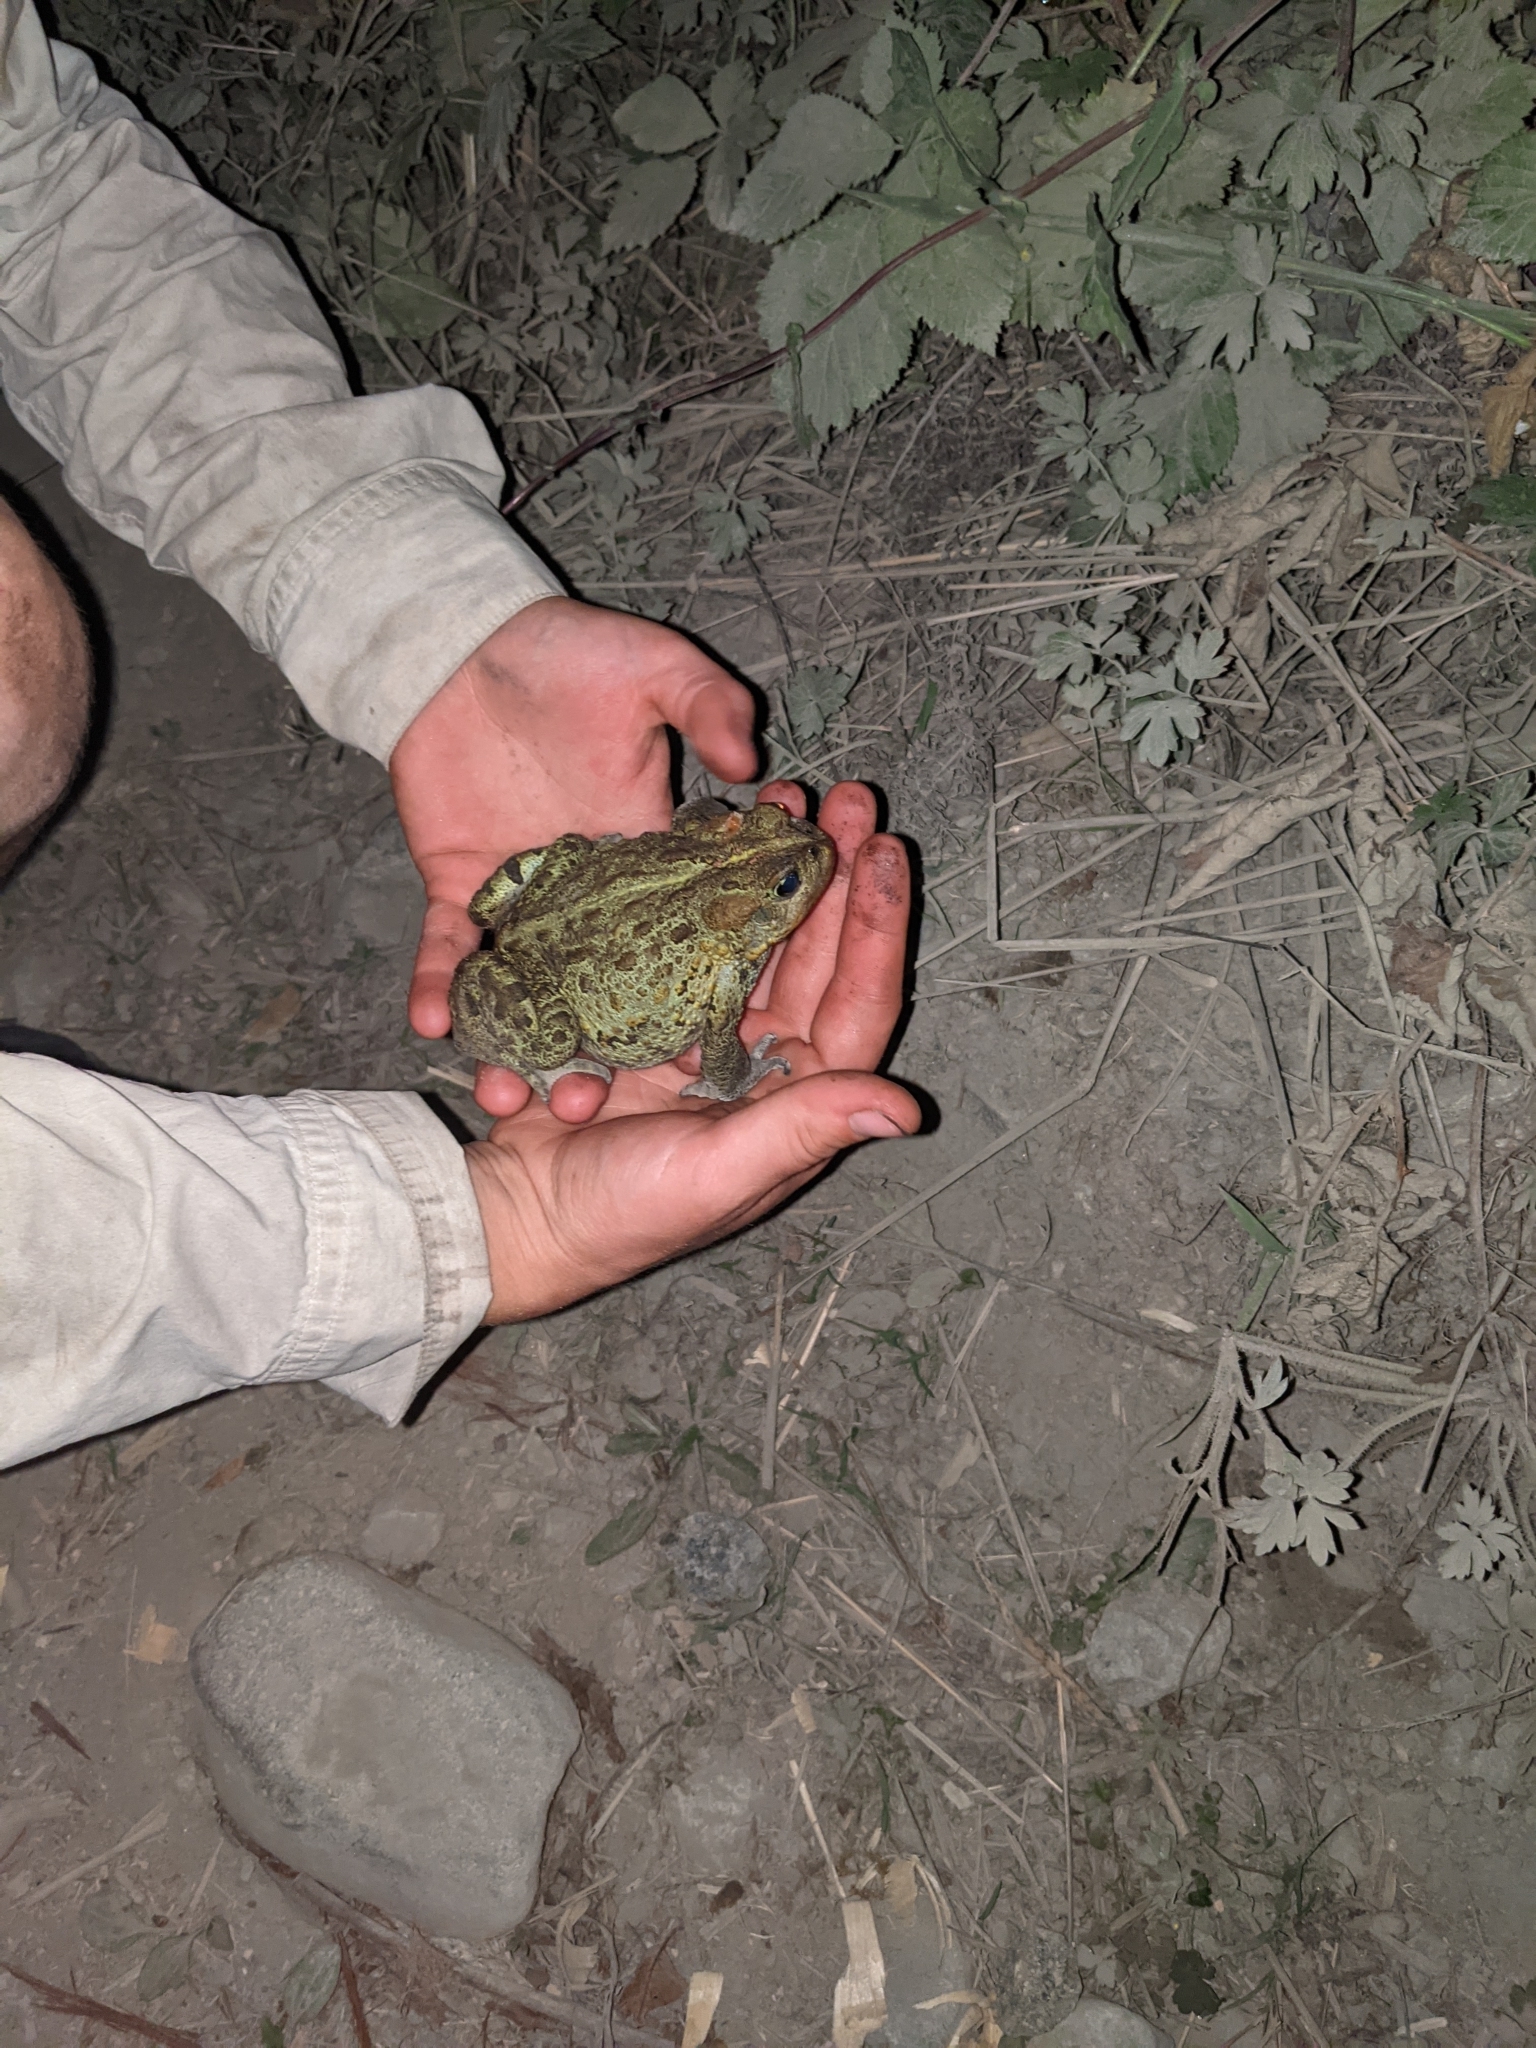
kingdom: Animalia
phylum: Chordata
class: Amphibia
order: Anura
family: Bufonidae
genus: Anaxyrus
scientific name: Anaxyrus boreas
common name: Western toad
